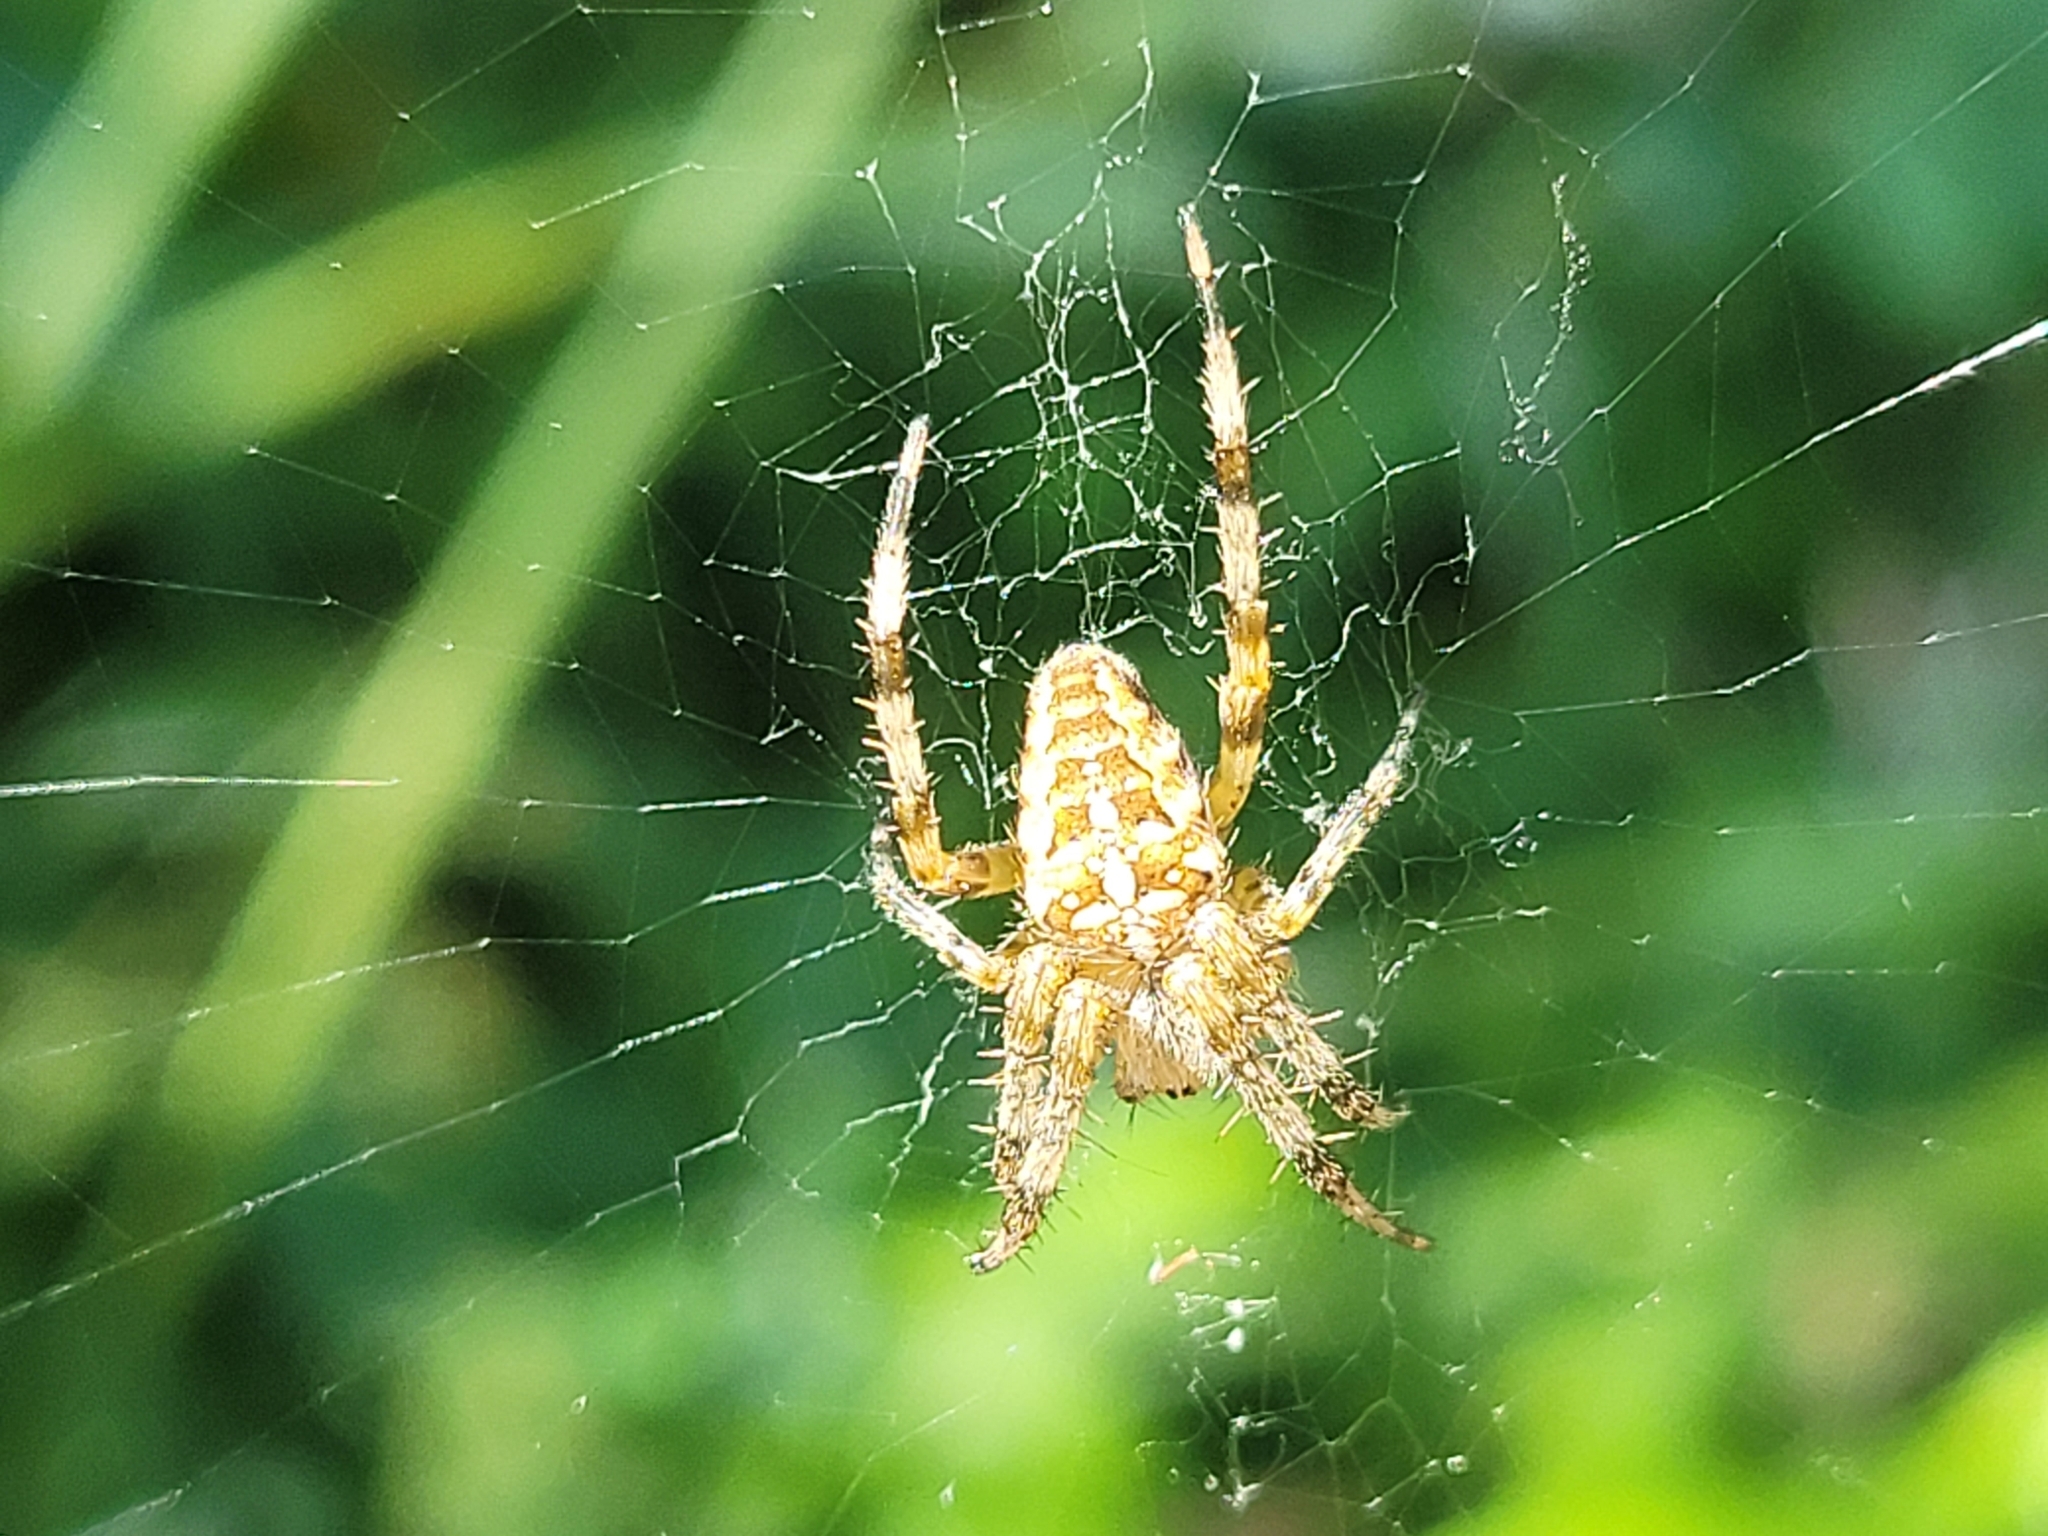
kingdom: Animalia
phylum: Arthropoda
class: Arachnida
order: Araneae
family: Araneidae
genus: Araneus
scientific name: Araneus diadematus
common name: Cross orbweaver
